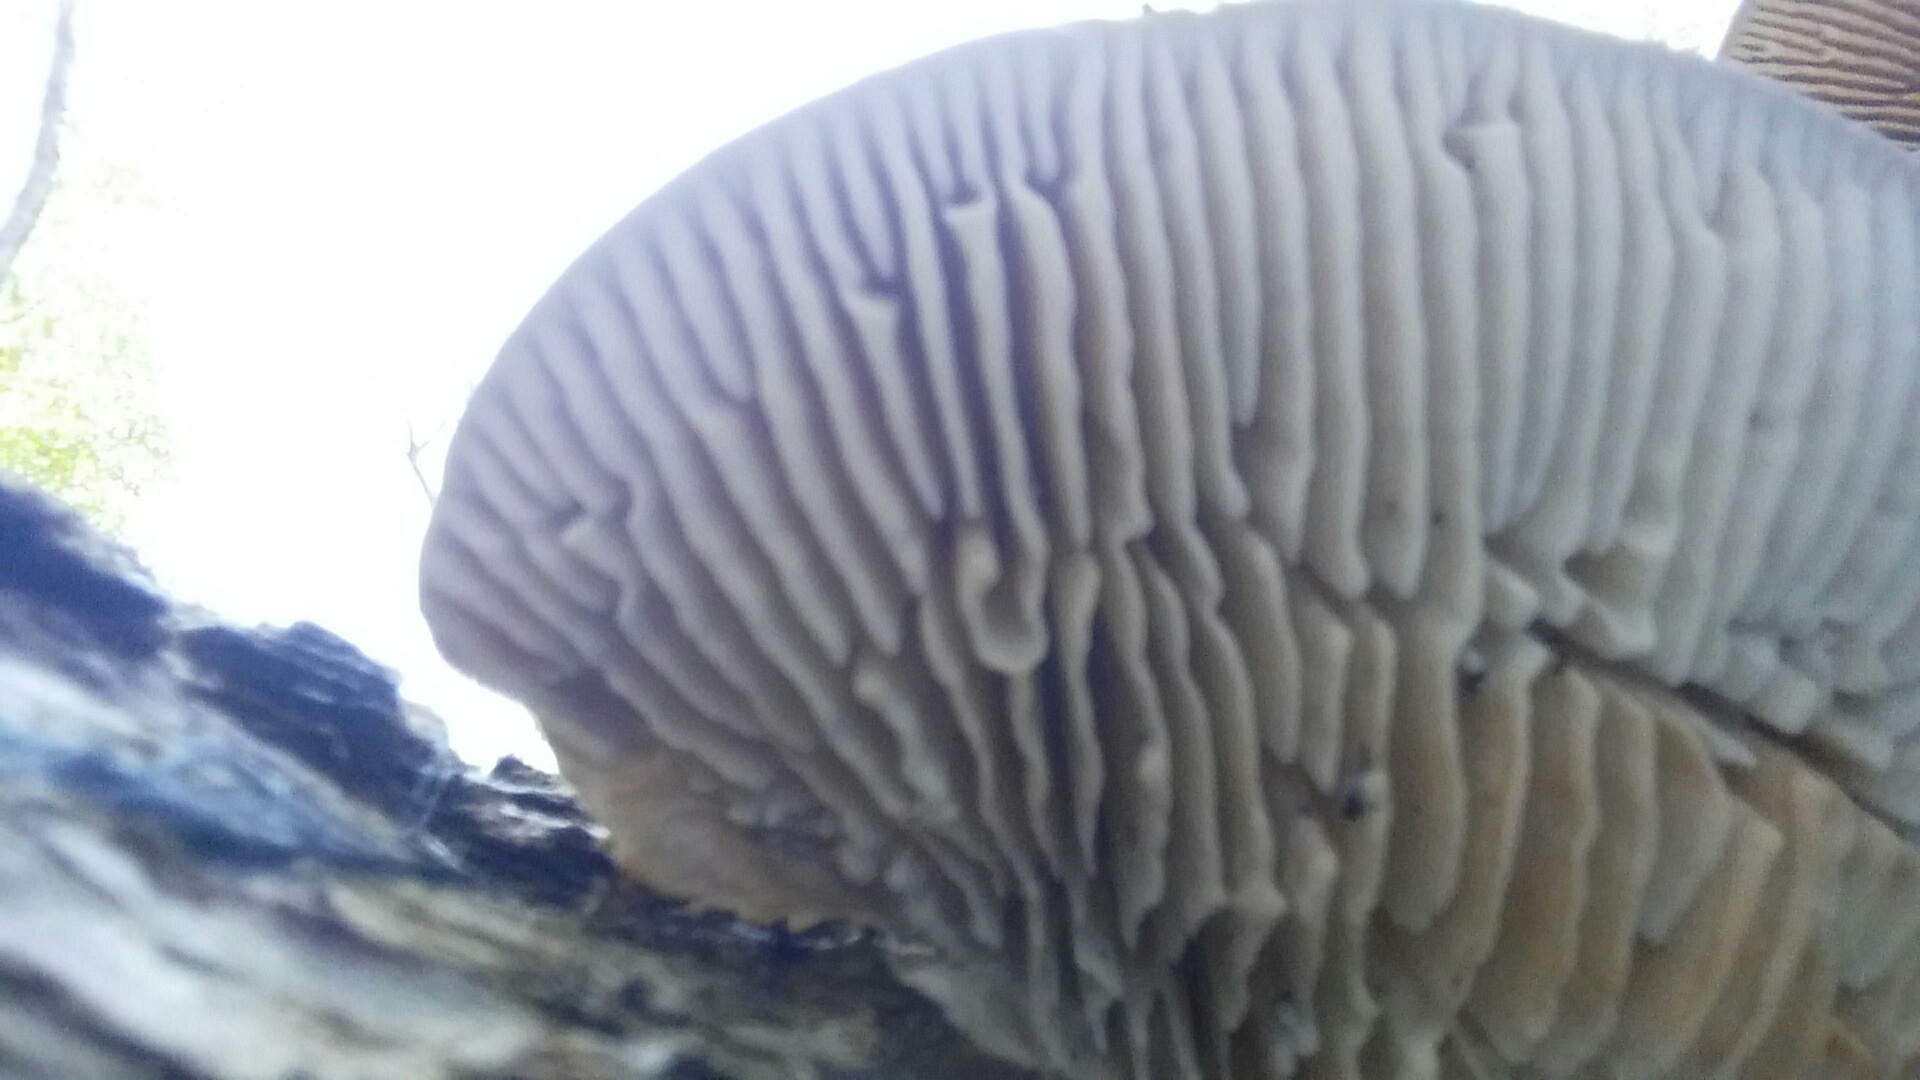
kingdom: Fungi
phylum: Basidiomycota
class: Agaricomycetes
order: Polyporales
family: Polyporaceae
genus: Lenzites
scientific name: Lenzites betulinus
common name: Birch mazegill
